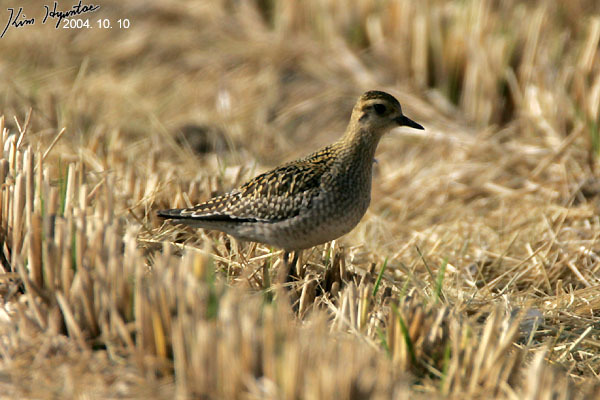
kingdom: Animalia
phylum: Chordata
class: Aves
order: Charadriiformes
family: Charadriidae
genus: Pluvialis
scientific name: Pluvialis fulva
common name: Pacific golden plover
